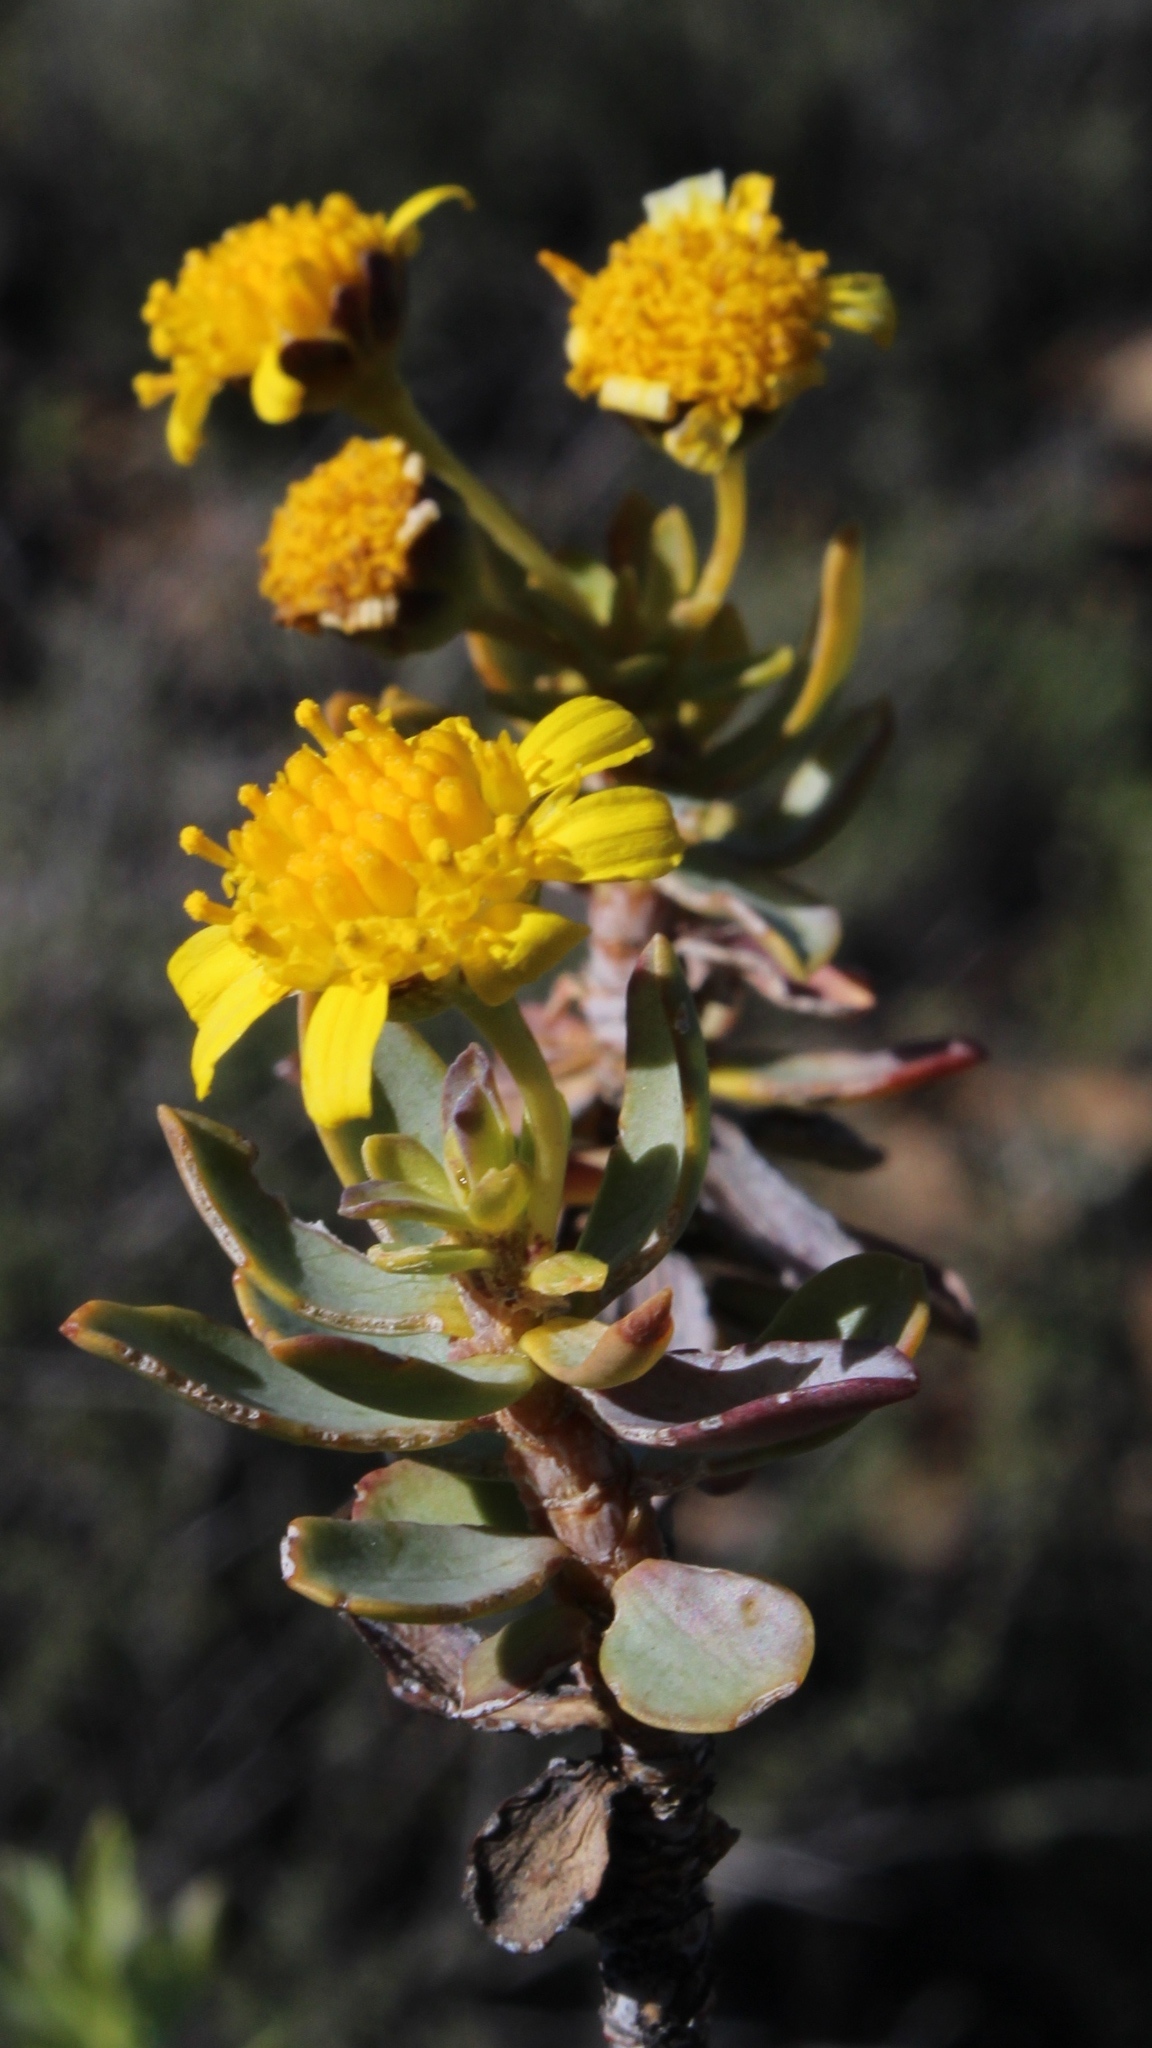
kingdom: Plantae
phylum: Tracheophyta
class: Magnoliopsida
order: Asterales
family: Asteraceae
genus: Euryops
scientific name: Euryops lateriflorus
